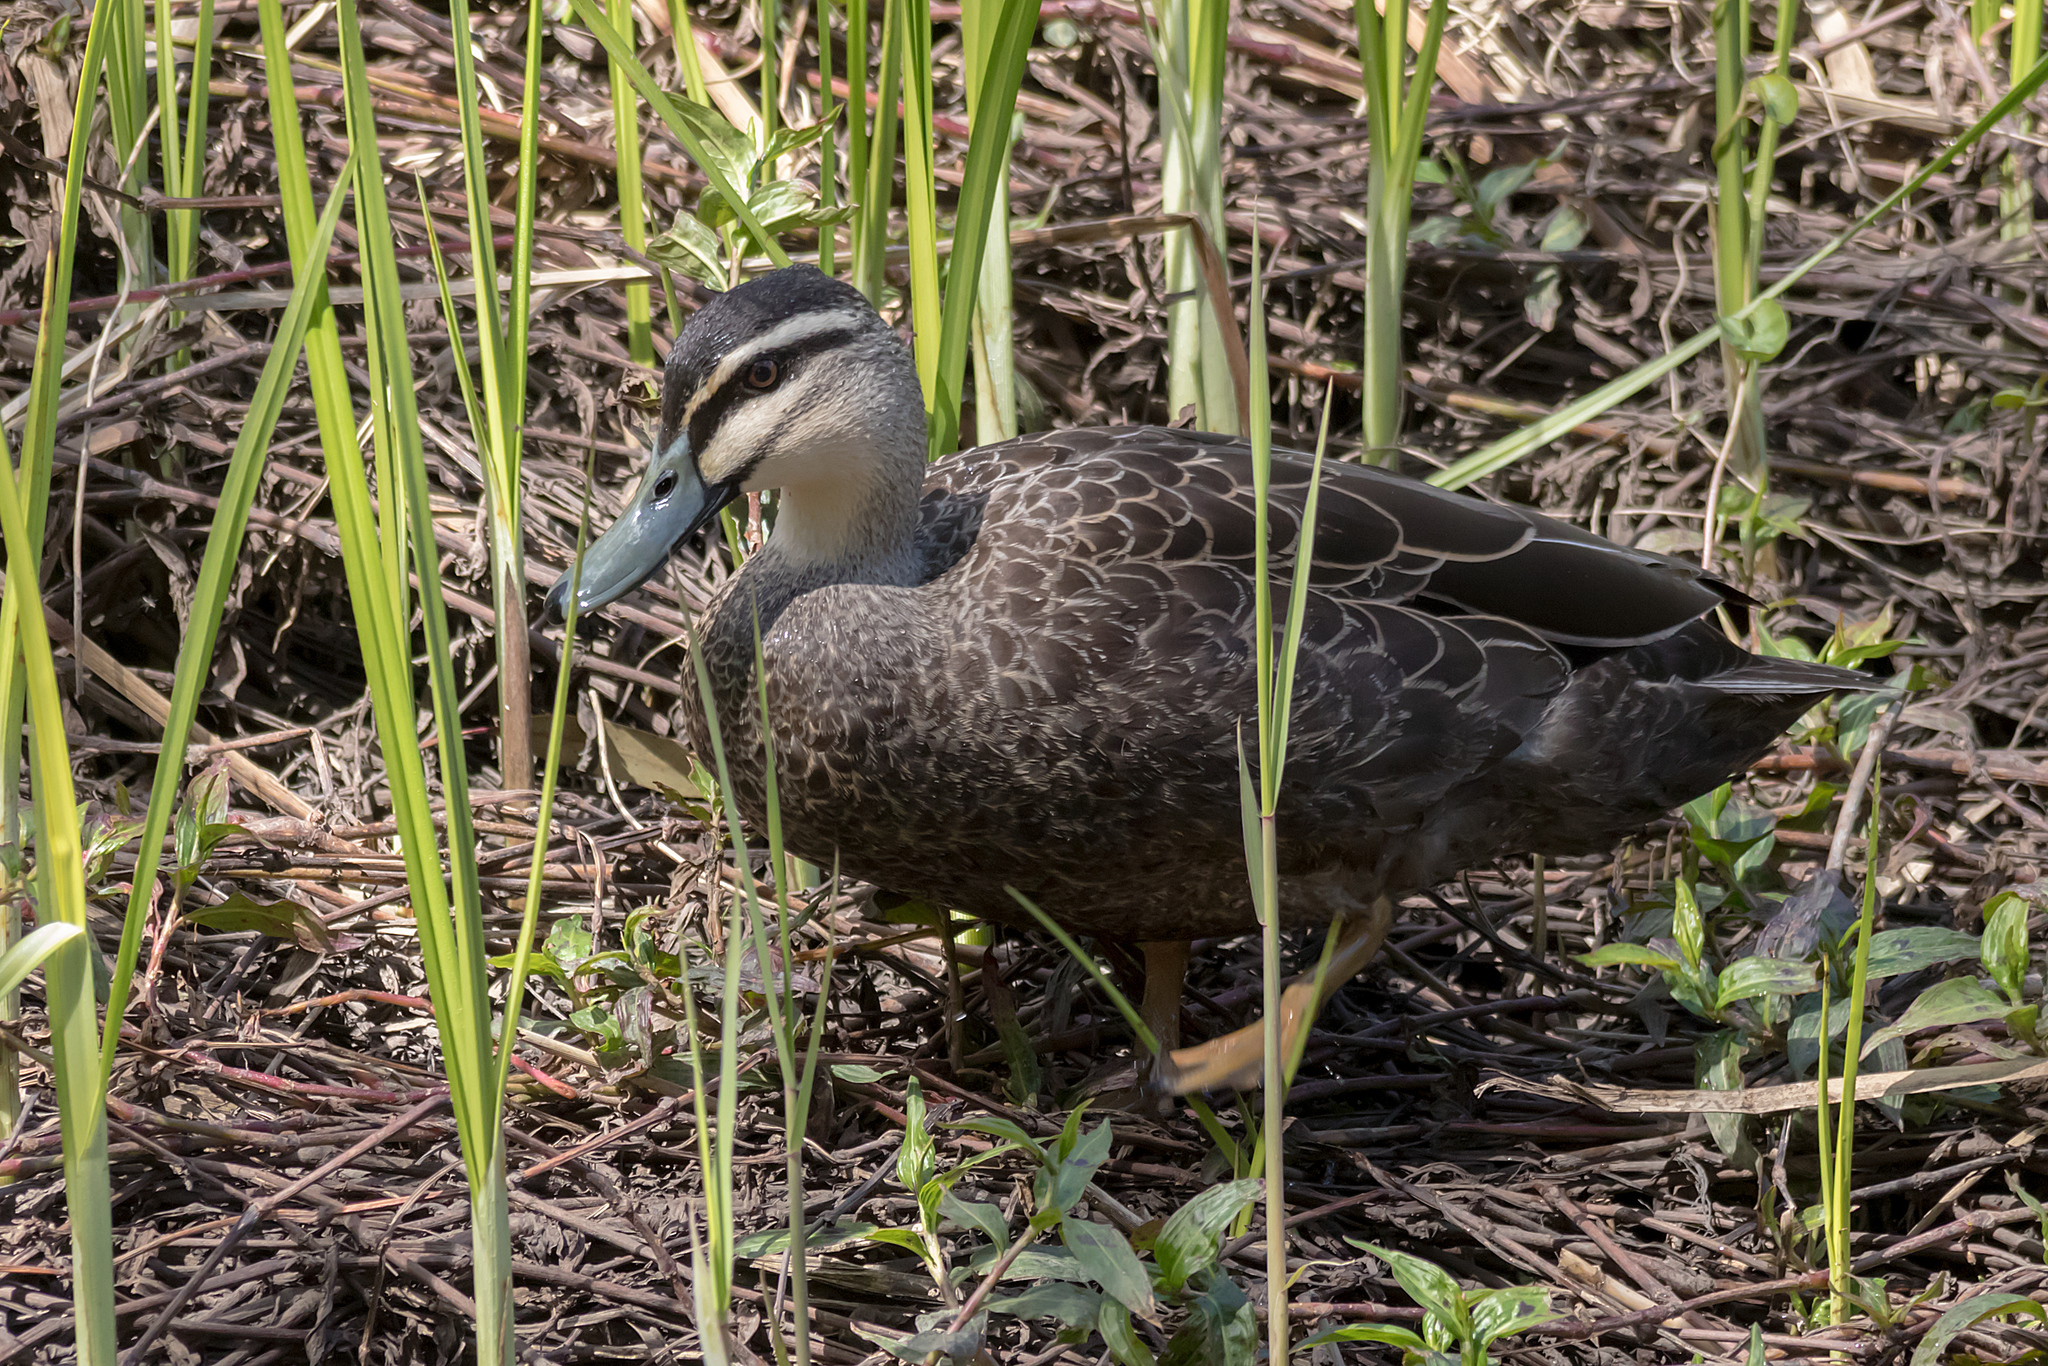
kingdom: Animalia
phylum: Chordata
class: Aves
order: Anseriformes
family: Anatidae
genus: Anas
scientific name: Anas
